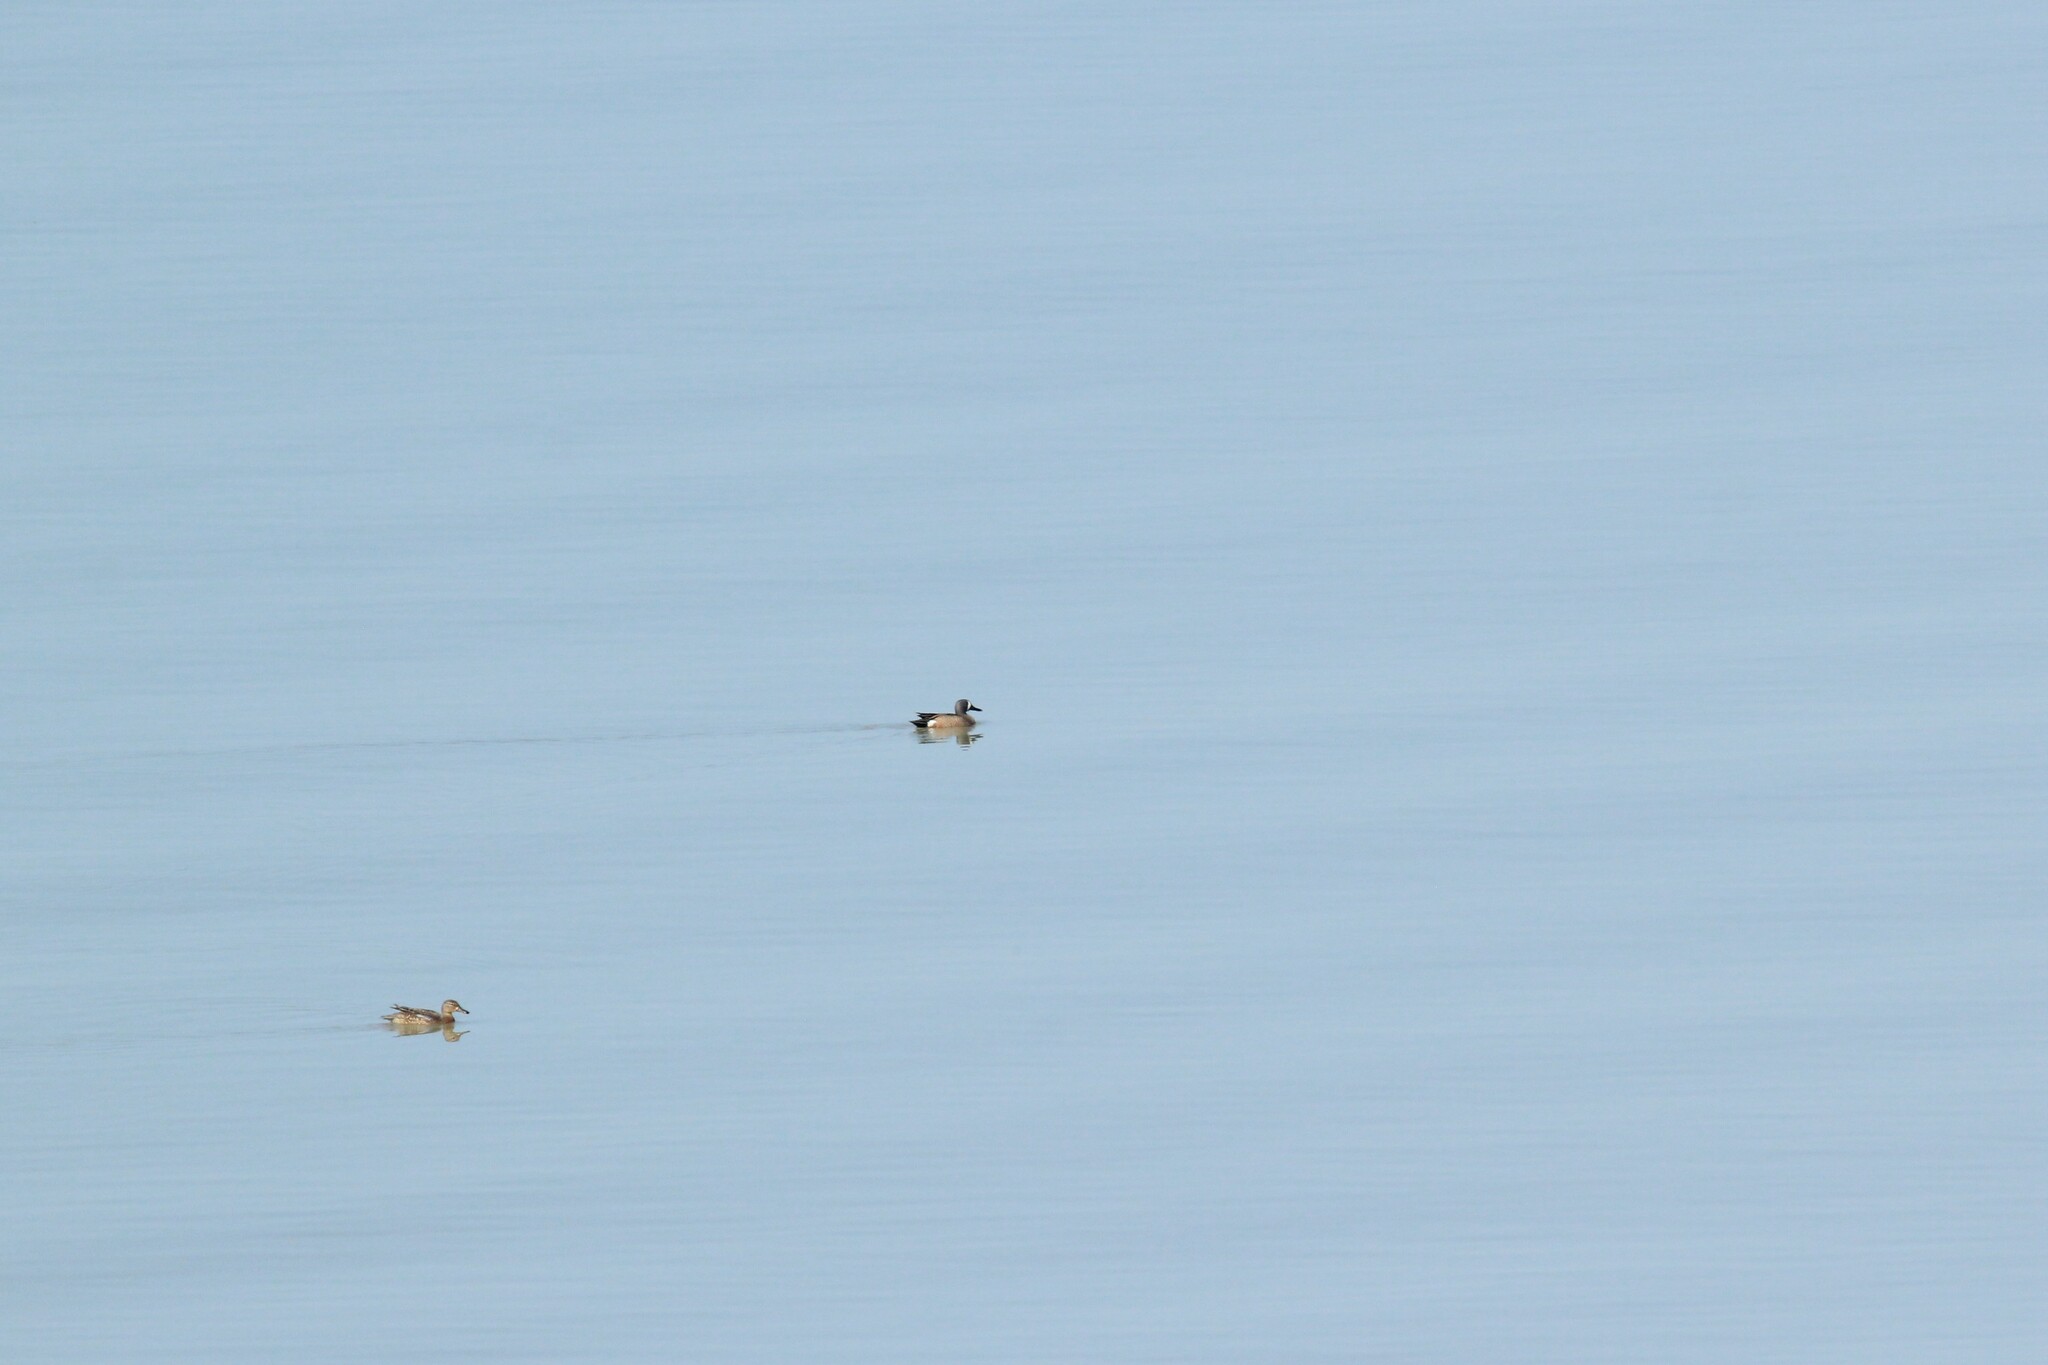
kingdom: Animalia
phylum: Chordata
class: Aves
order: Anseriformes
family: Anatidae
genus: Spatula
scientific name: Spatula discors
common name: Blue-winged teal
